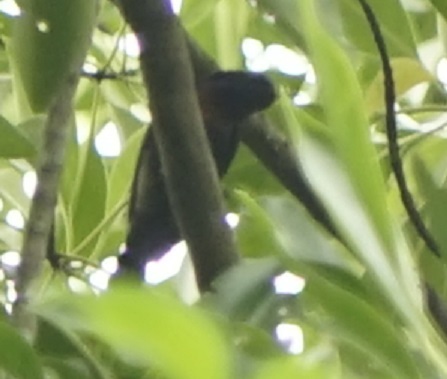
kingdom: Animalia
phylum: Chordata
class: Aves
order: Passeriformes
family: Nectariniidae
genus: Leptocoma
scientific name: Leptocoma calcostetha
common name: Copper-throated sunbird
